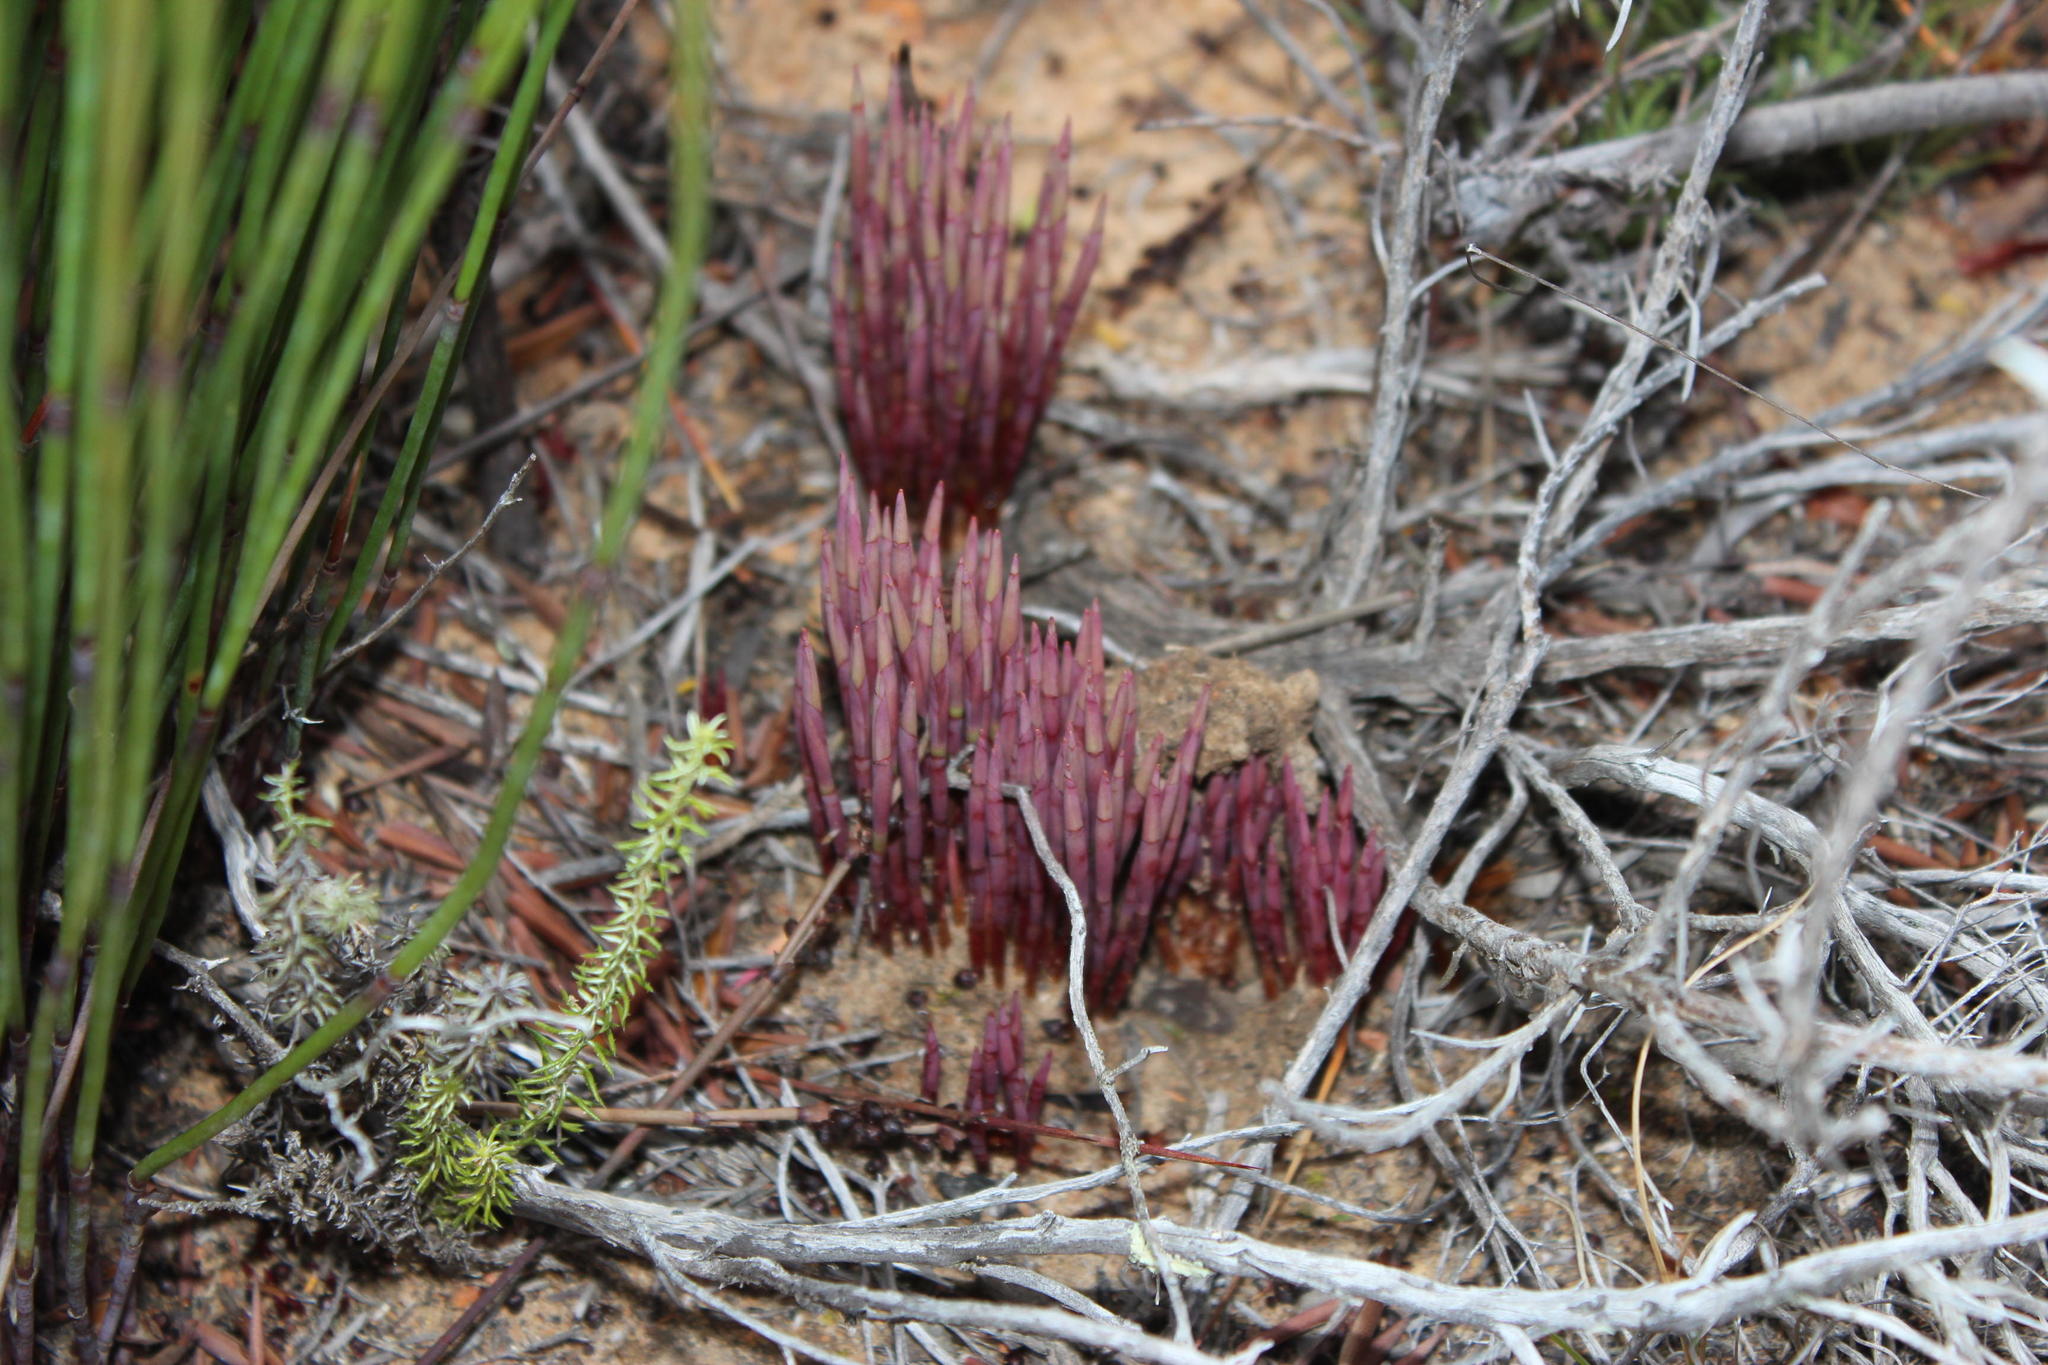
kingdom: Plantae
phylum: Tracheophyta
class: Liliopsida
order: Poales
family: Restionaceae
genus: Elegia
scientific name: Elegia galpinii
